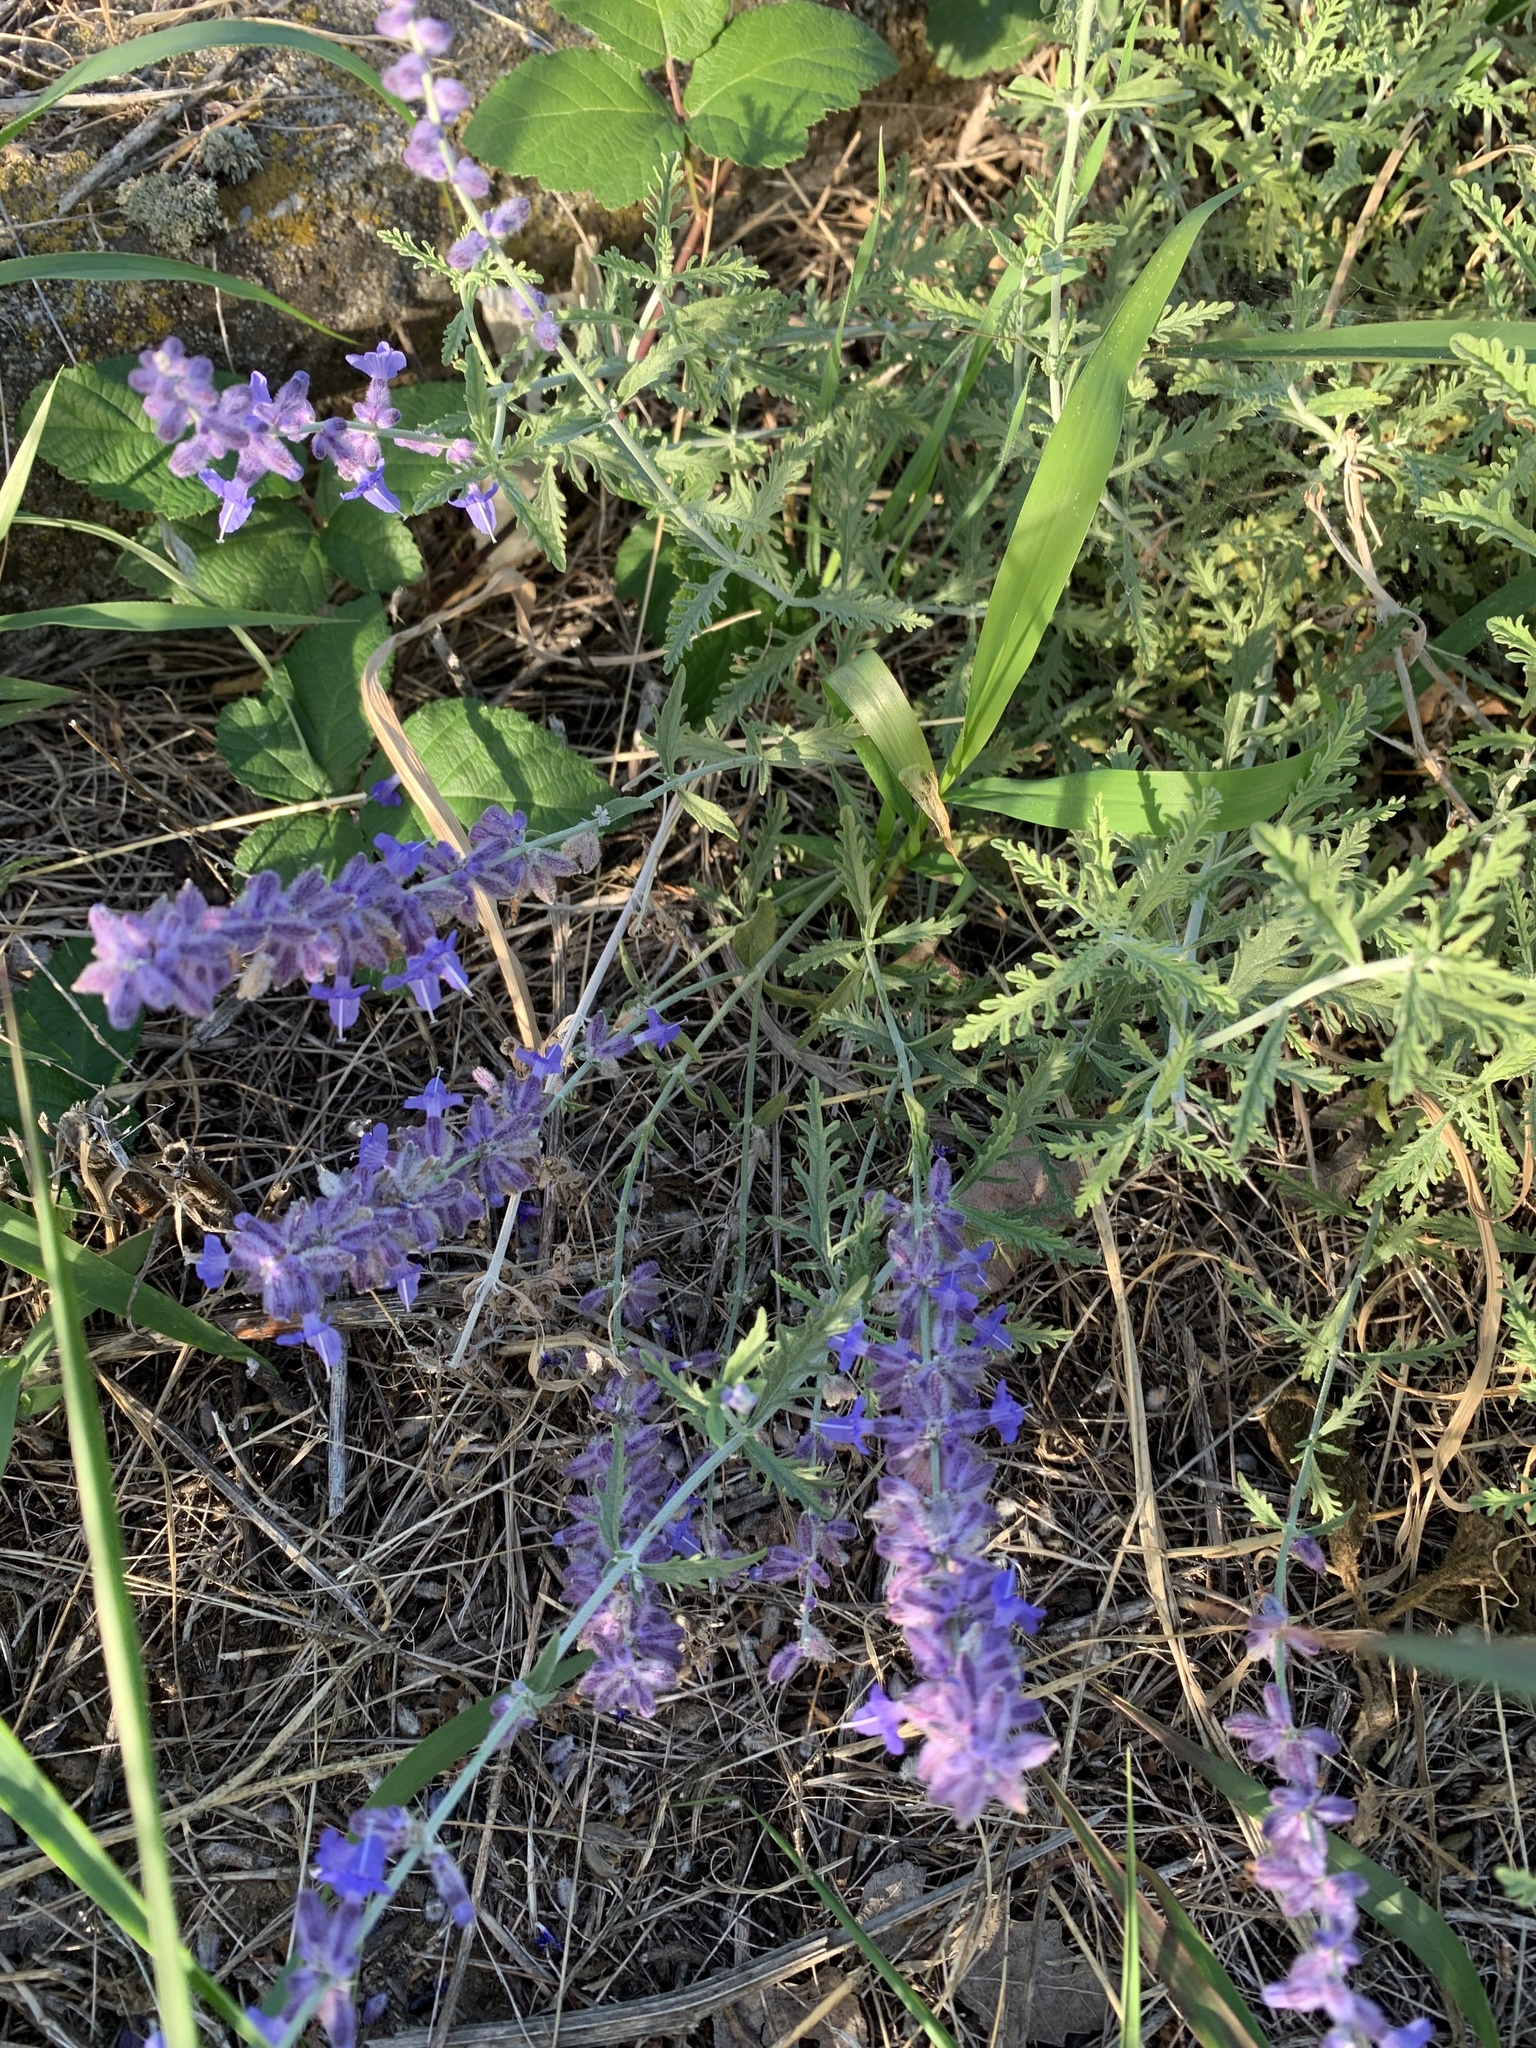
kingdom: Plantae
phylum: Tracheophyta
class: Magnoliopsida
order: Lamiales
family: Lamiaceae
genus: Salvia
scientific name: Salvia
